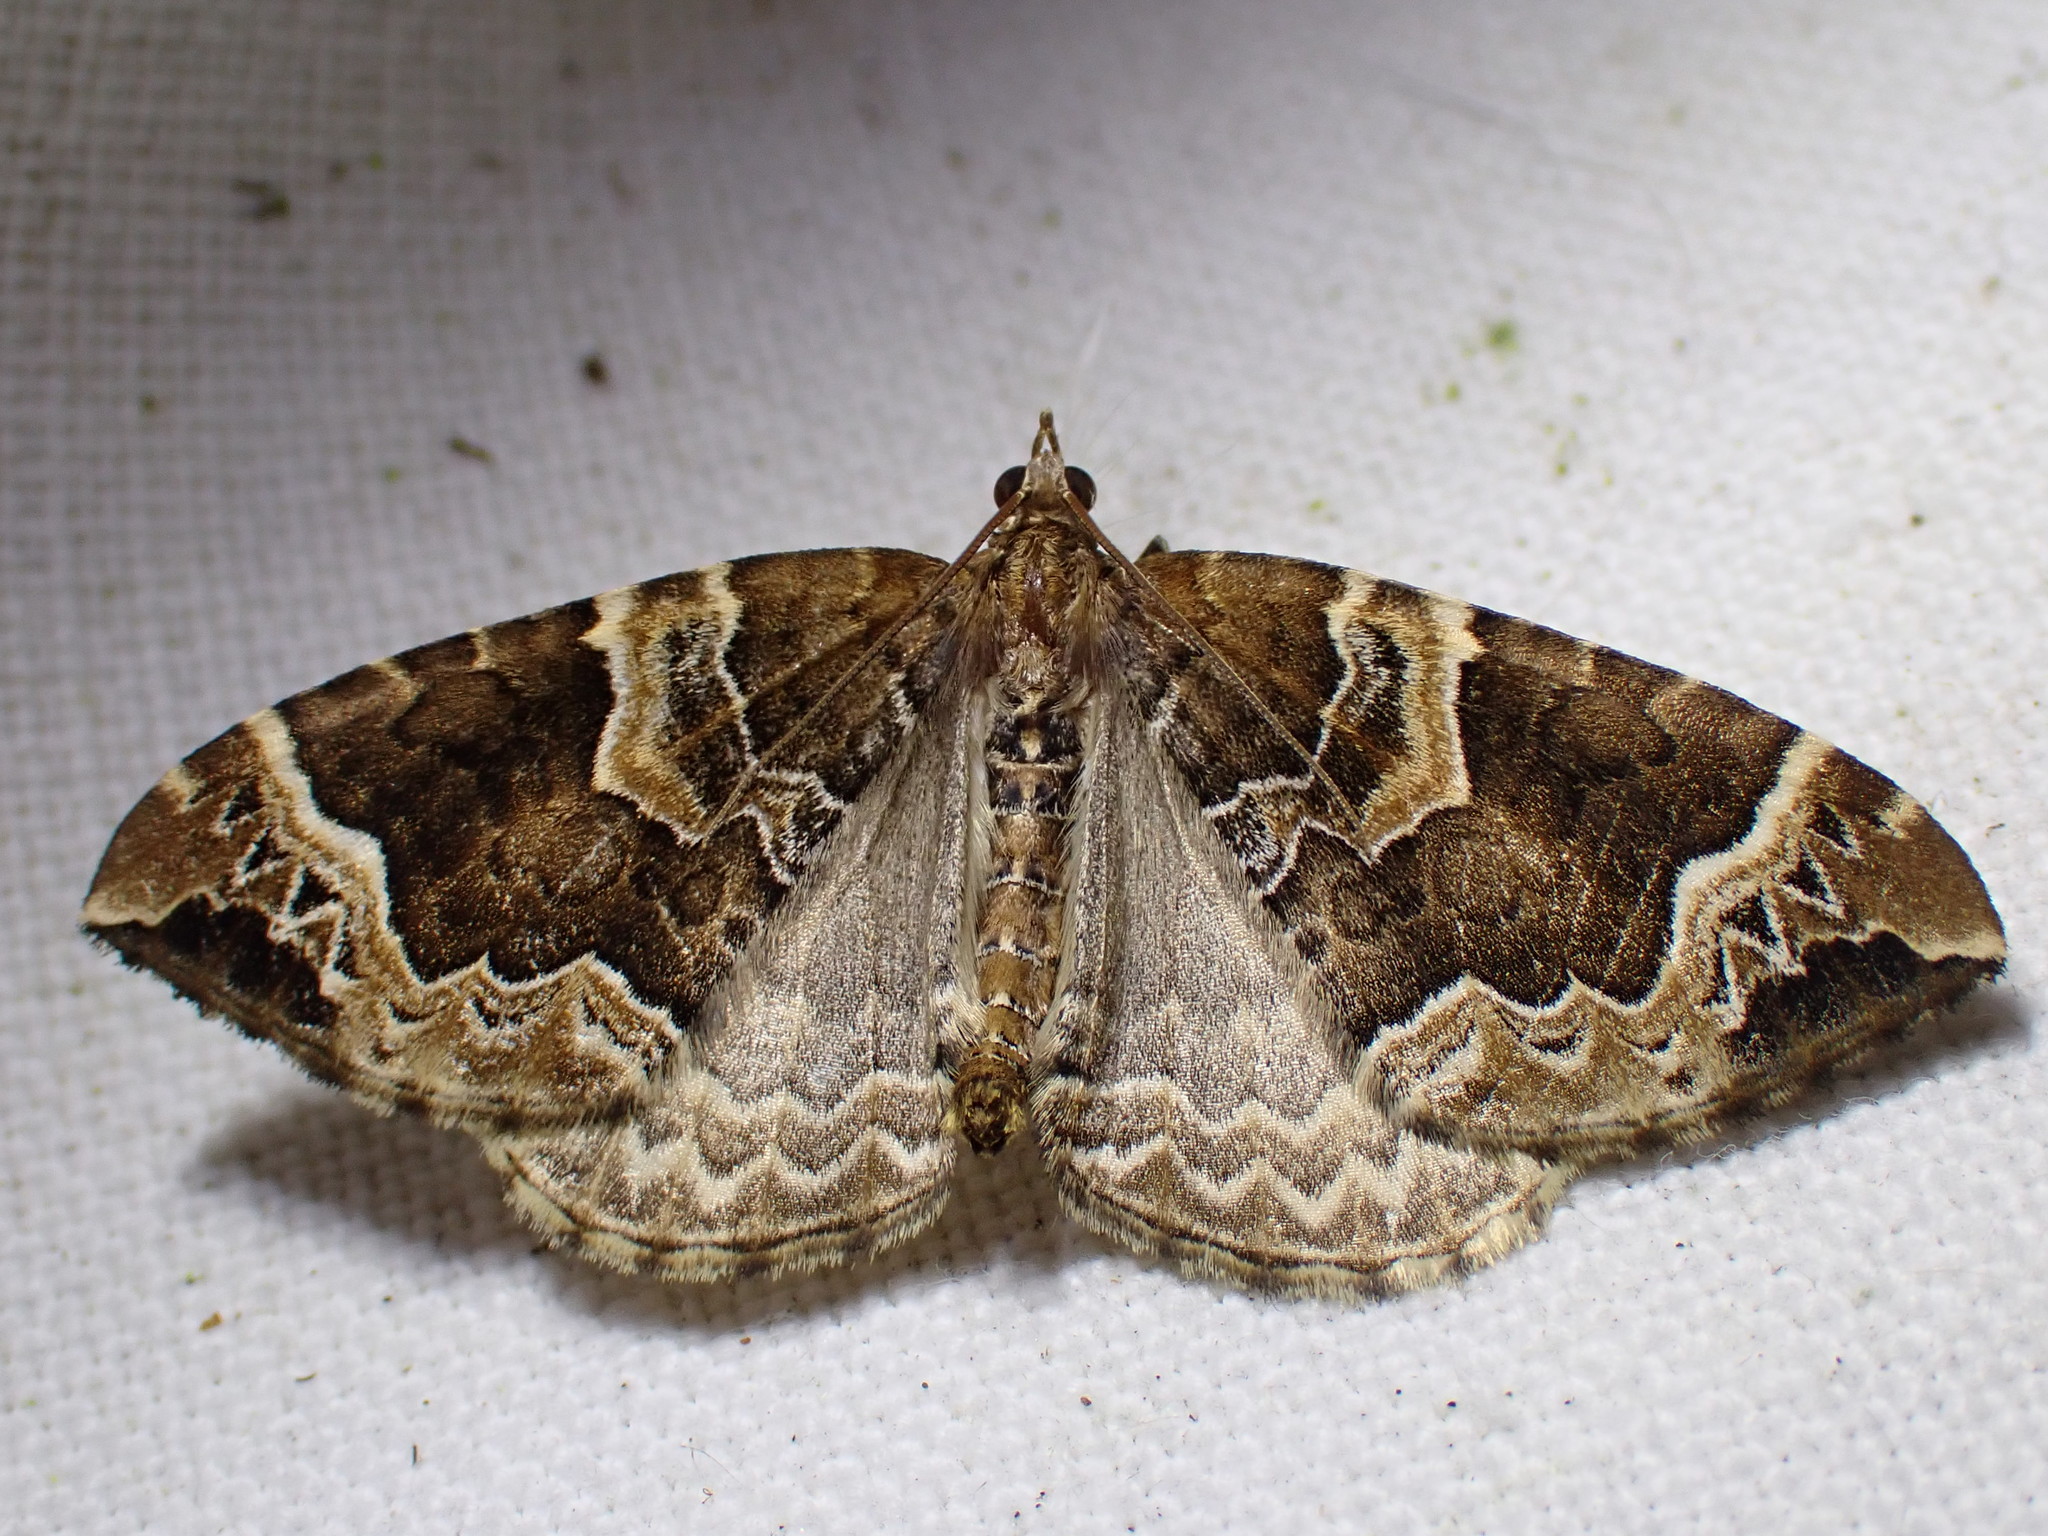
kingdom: Animalia
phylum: Arthropoda
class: Insecta
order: Lepidoptera
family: Geometridae
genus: Eulithis
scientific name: Eulithis prunata
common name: Phoenix
